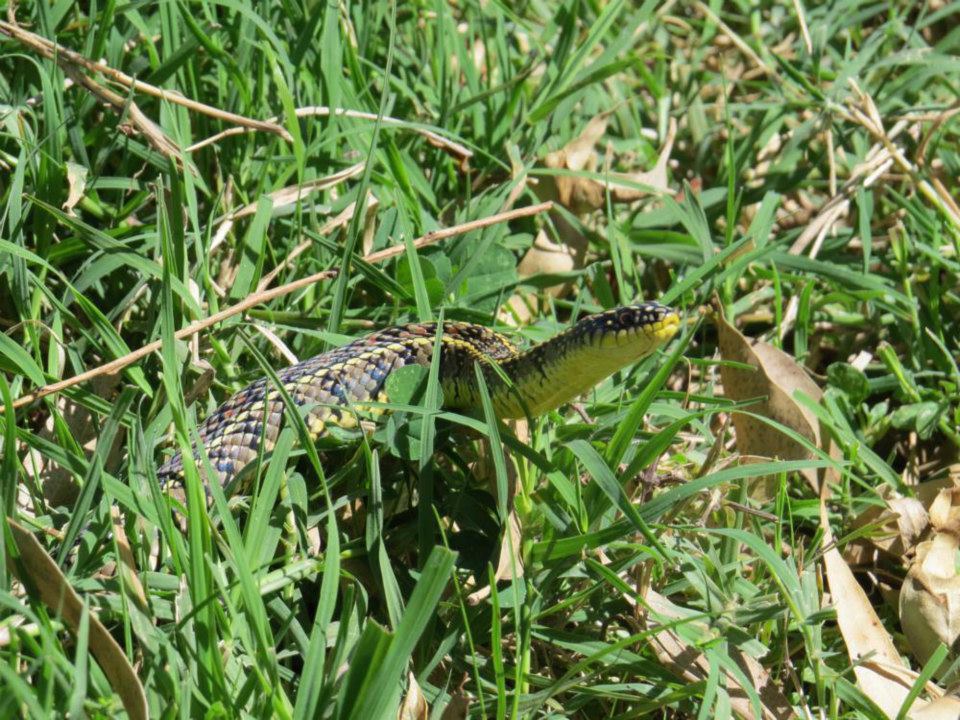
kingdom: Animalia
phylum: Chordata
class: Squamata
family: Colubridae
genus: Lygophis
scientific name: Lygophis anomalus
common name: English common name not available
